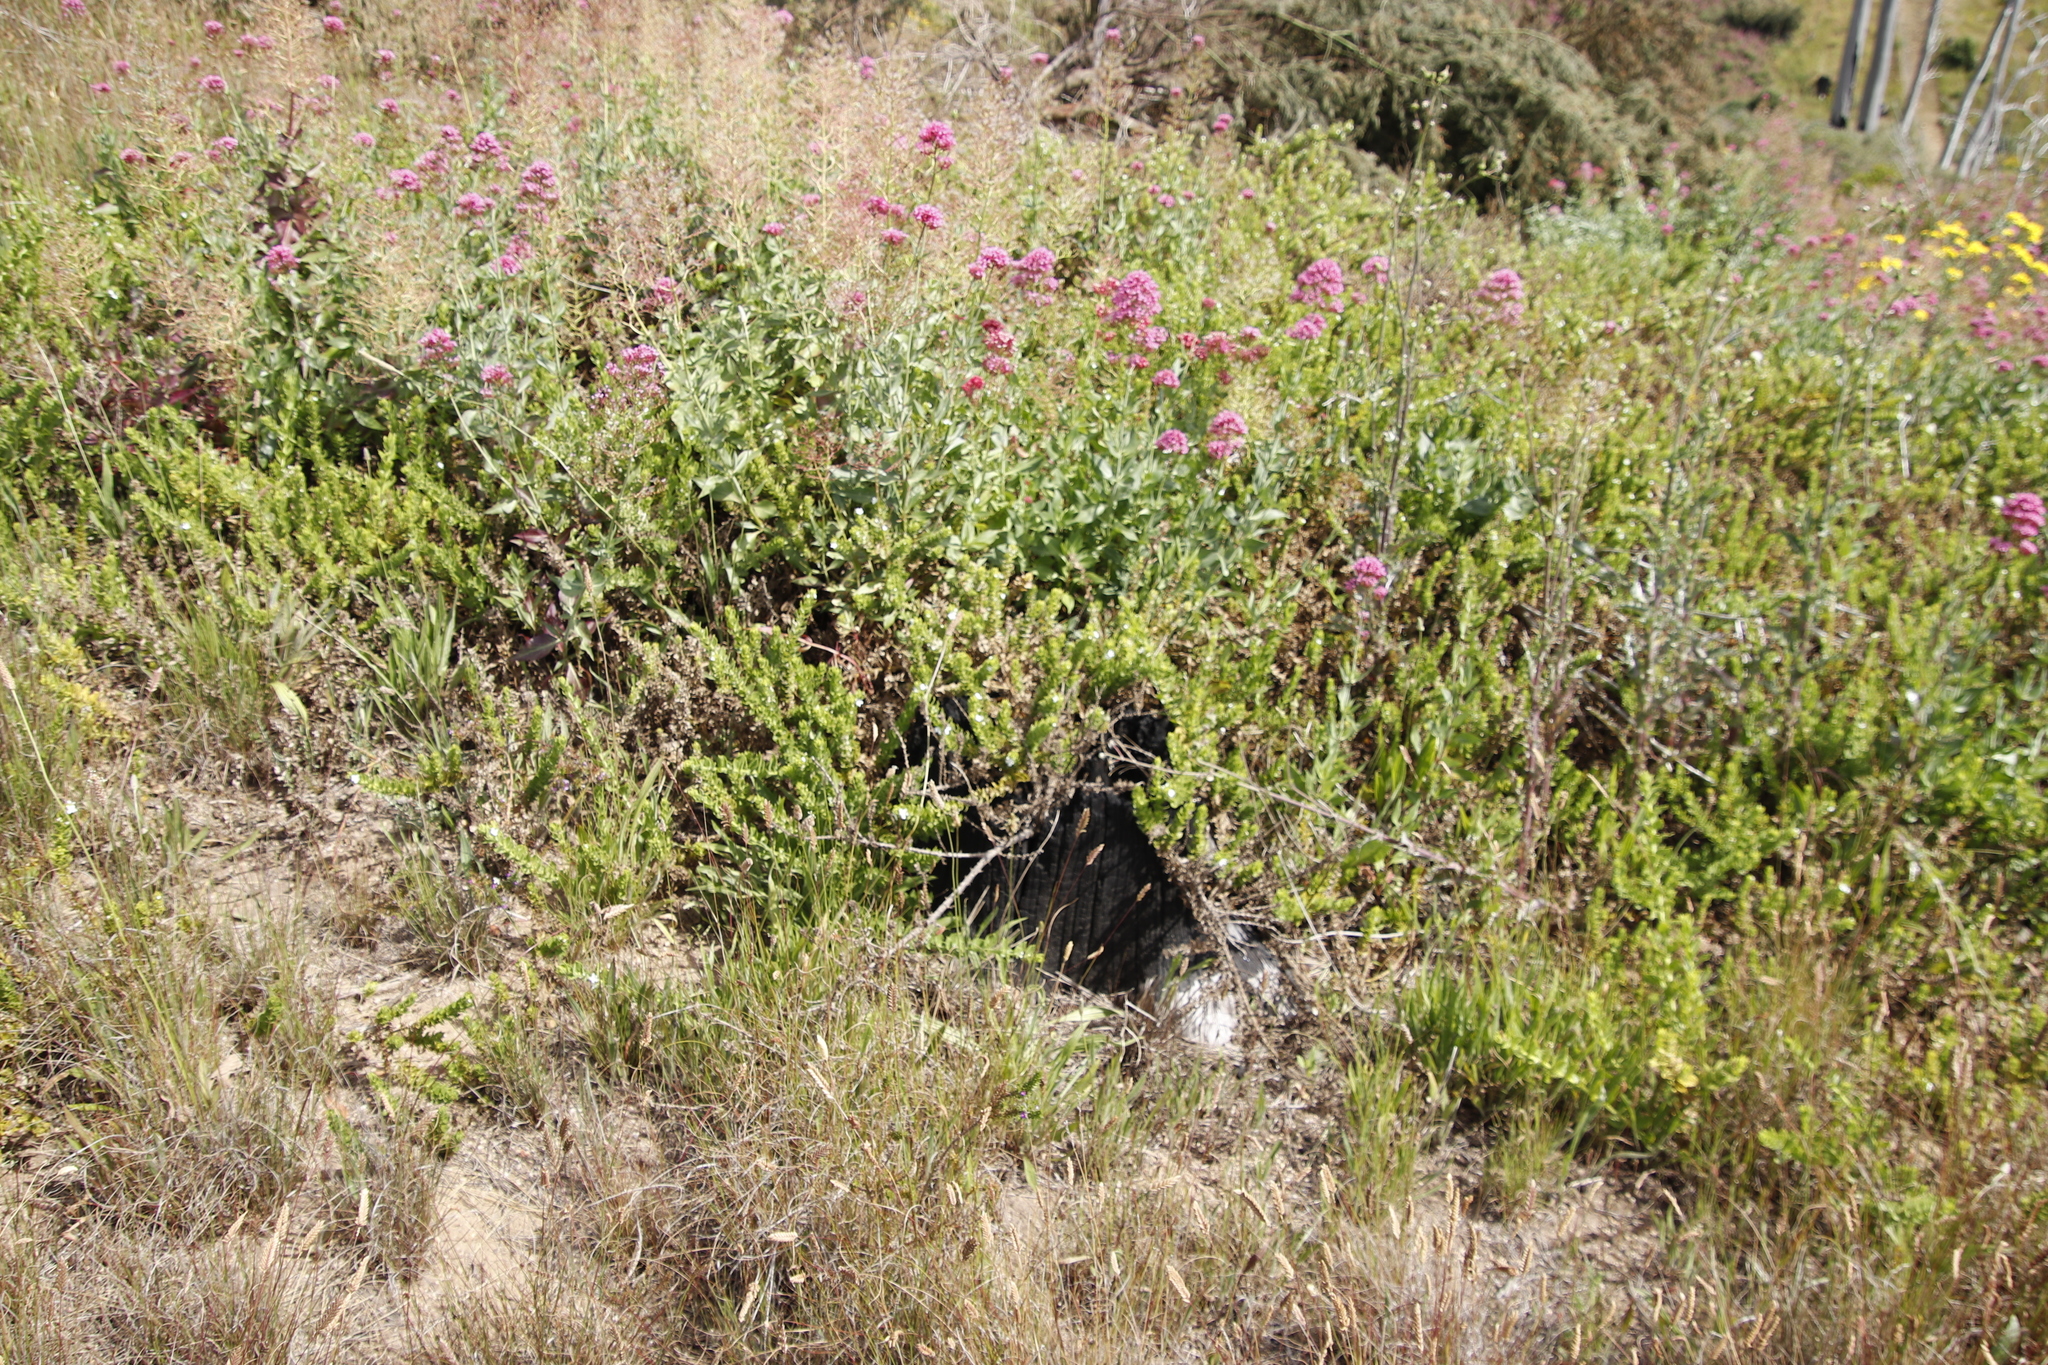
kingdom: Plantae
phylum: Tracheophyta
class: Magnoliopsida
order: Dipsacales
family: Caprifoliaceae
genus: Centranthus
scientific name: Centranthus ruber
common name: Red valerian
